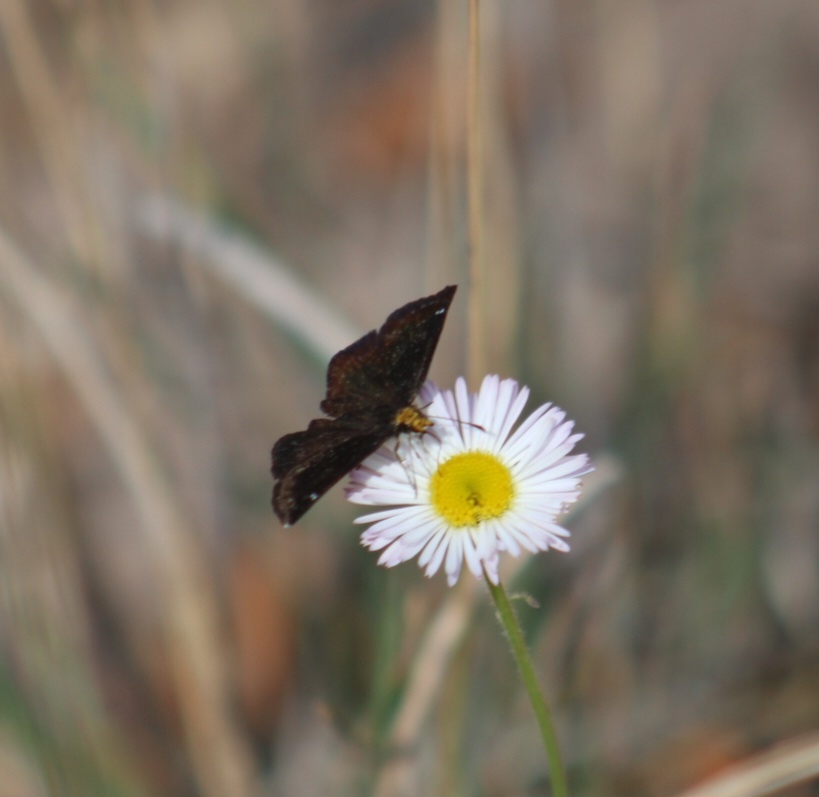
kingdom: Animalia
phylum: Arthropoda
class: Insecta
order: Lepidoptera
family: Hesperiidae
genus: Staphylus
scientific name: Staphylus ceos
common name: Golden-headed scallopwing
